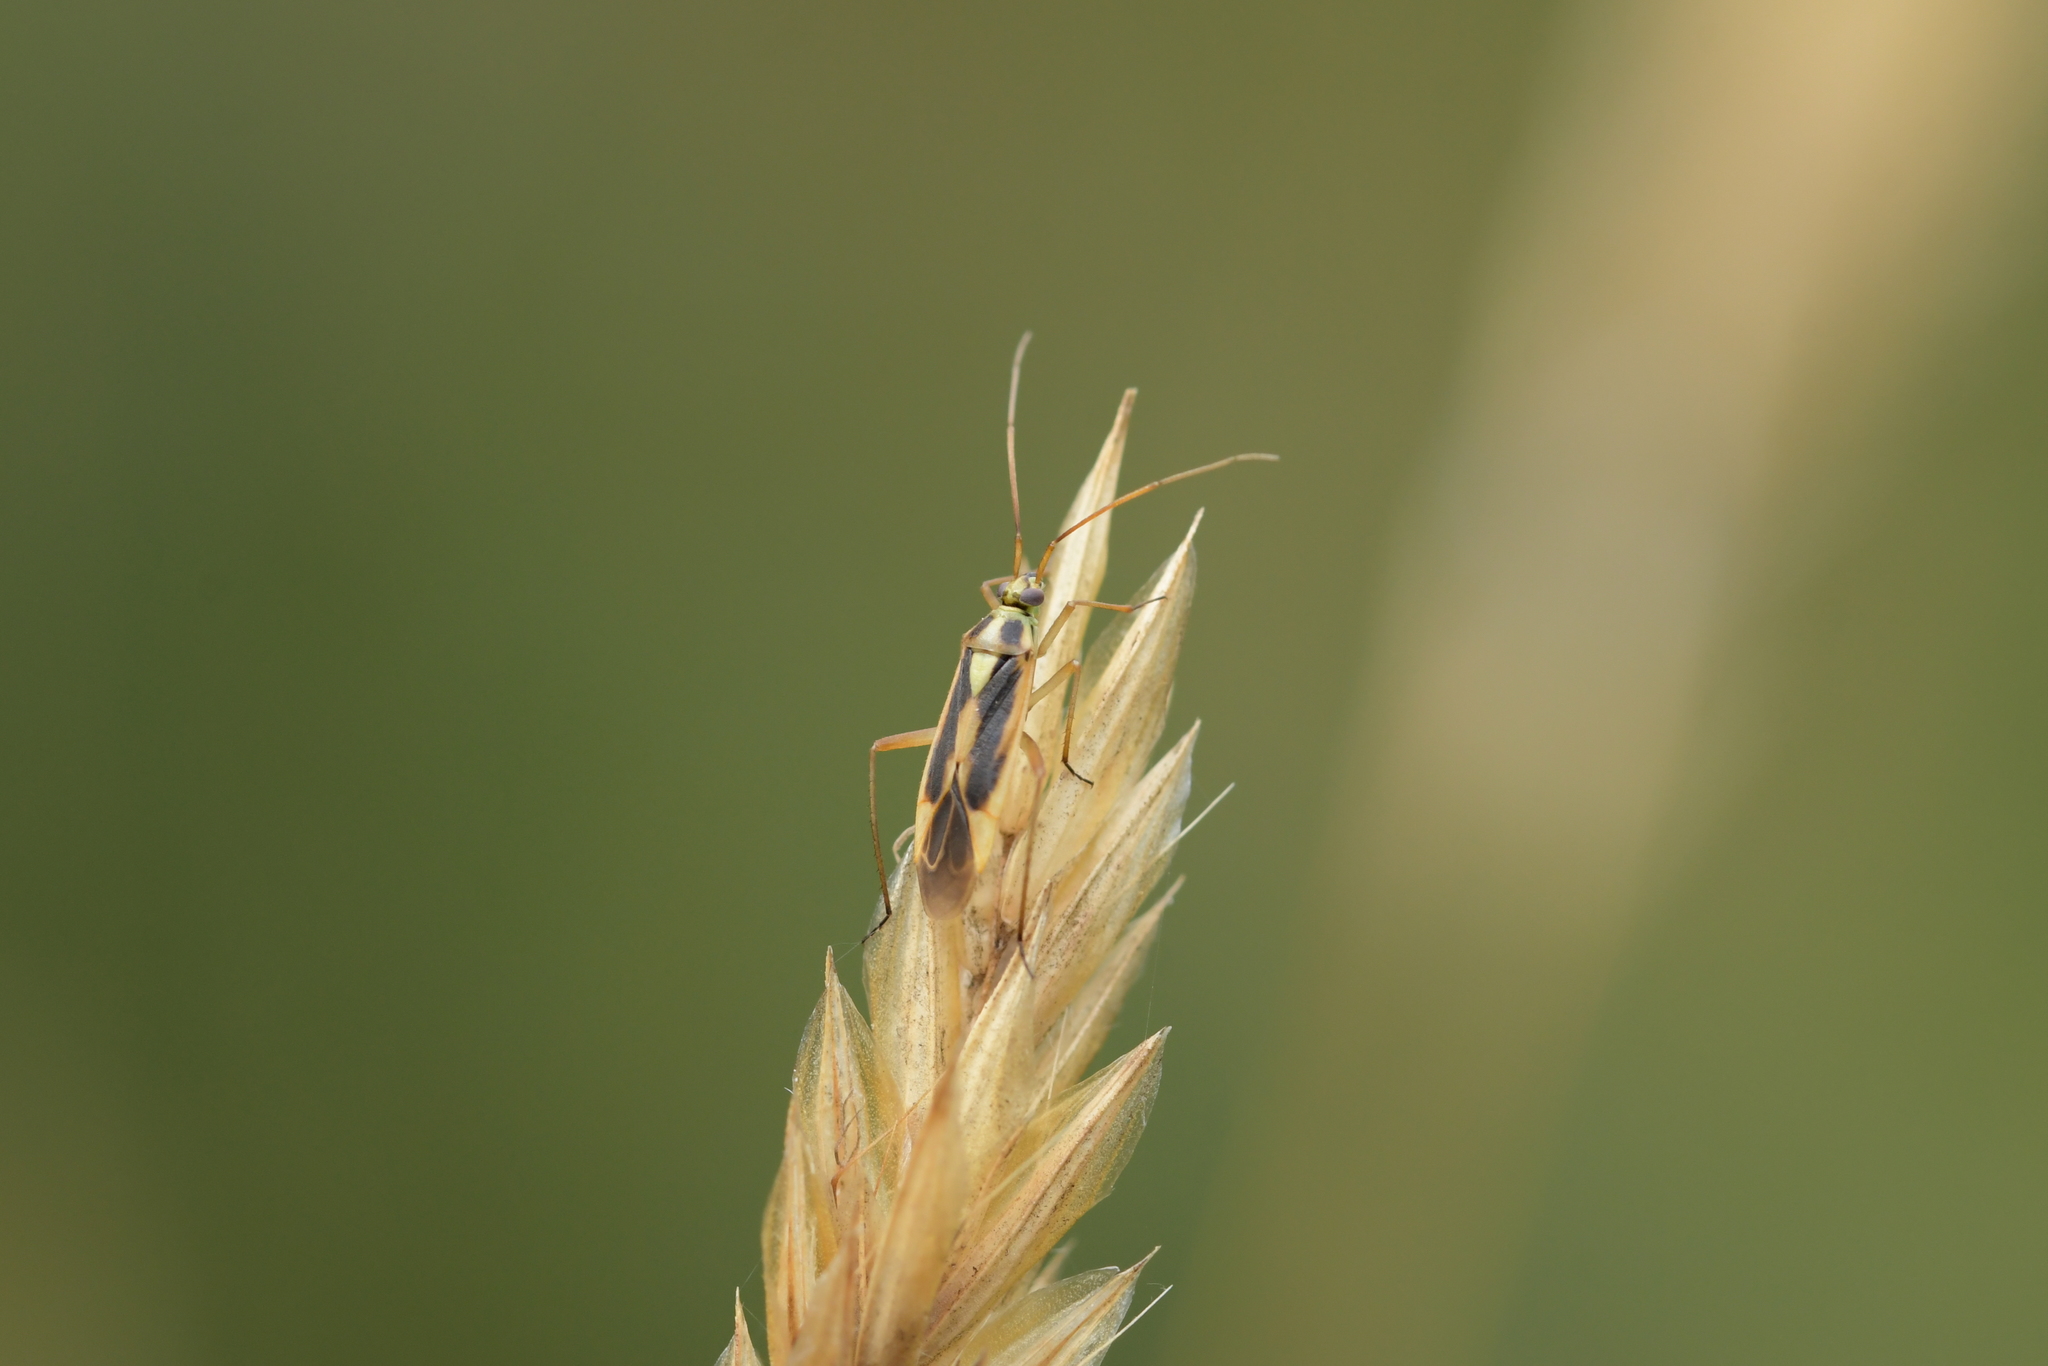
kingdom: Animalia
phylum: Arthropoda
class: Insecta
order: Hemiptera
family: Miridae
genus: Stenotus
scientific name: Stenotus binotatus
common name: Plant bug
